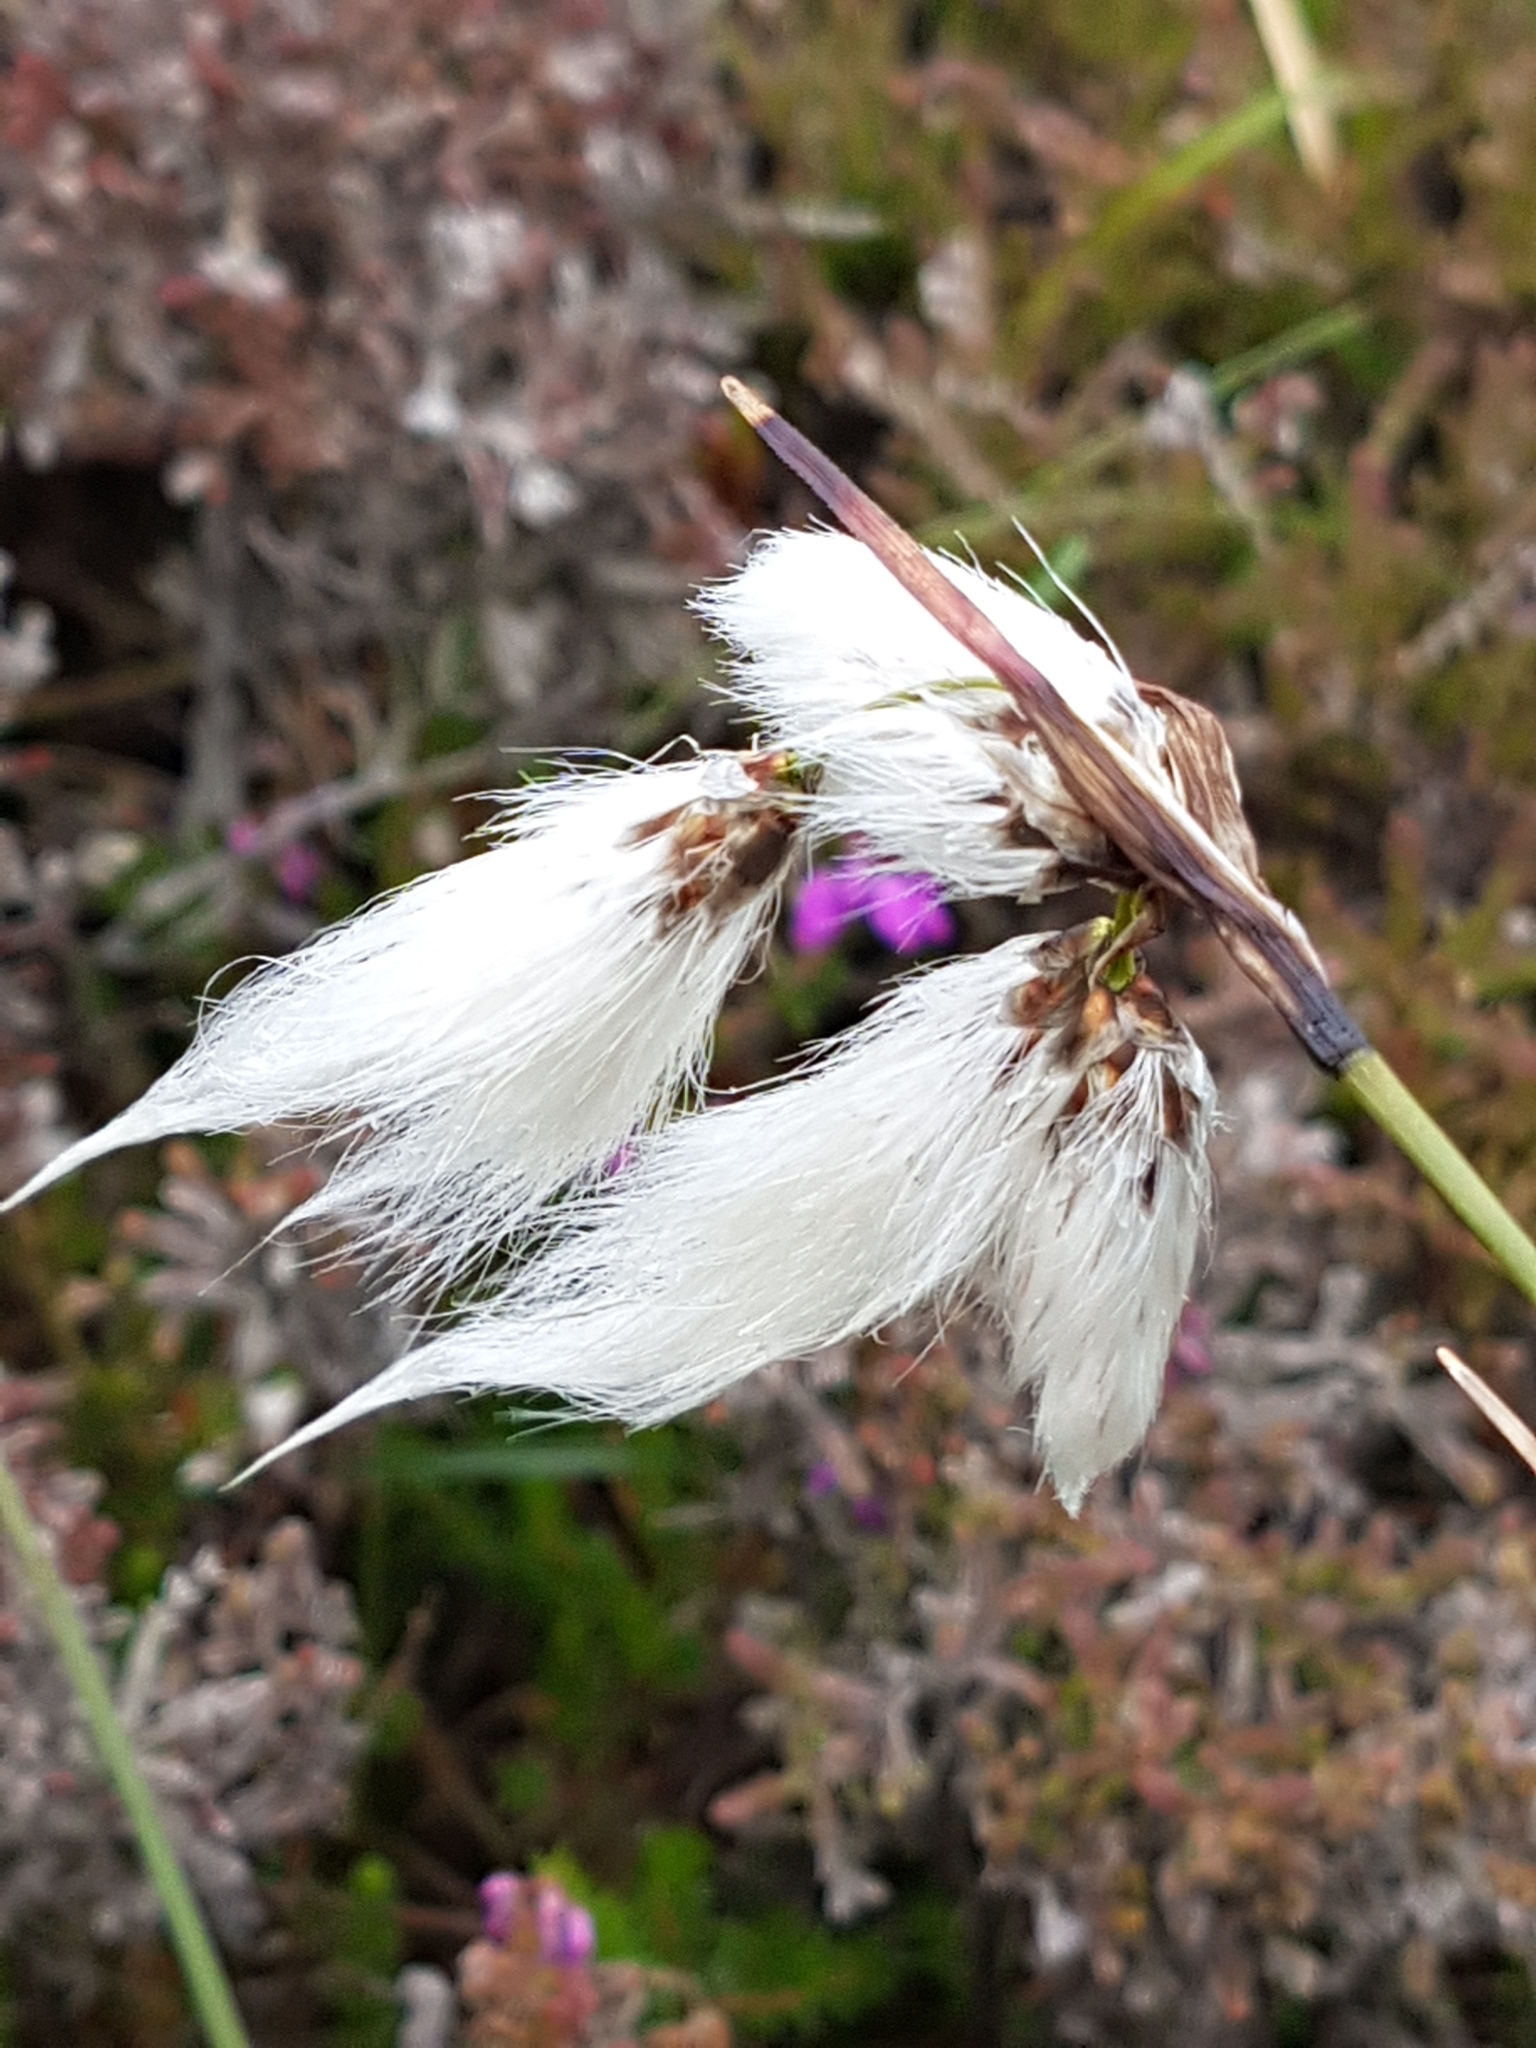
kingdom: Plantae
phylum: Tracheophyta
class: Liliopsida
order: Poales
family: Cyperaceae
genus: Eriophorum
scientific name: Eriophorum angustifolium
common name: Common cottongrass
